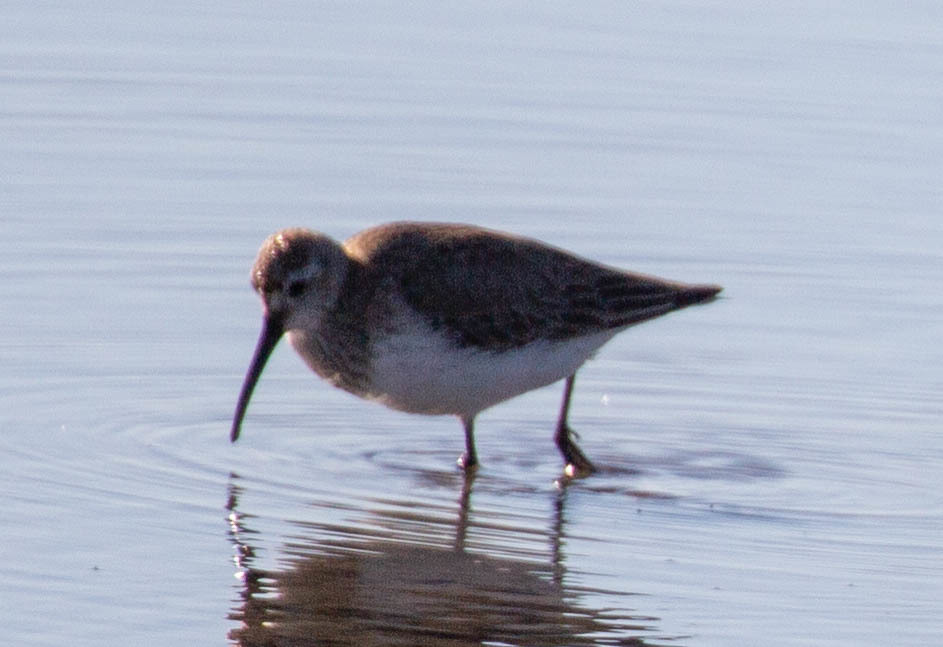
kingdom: Animalia
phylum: Chordata
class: Aves
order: Charadriiformes
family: Scolopacidae
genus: Calidris
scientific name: Calidris alpina
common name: Dunlin
